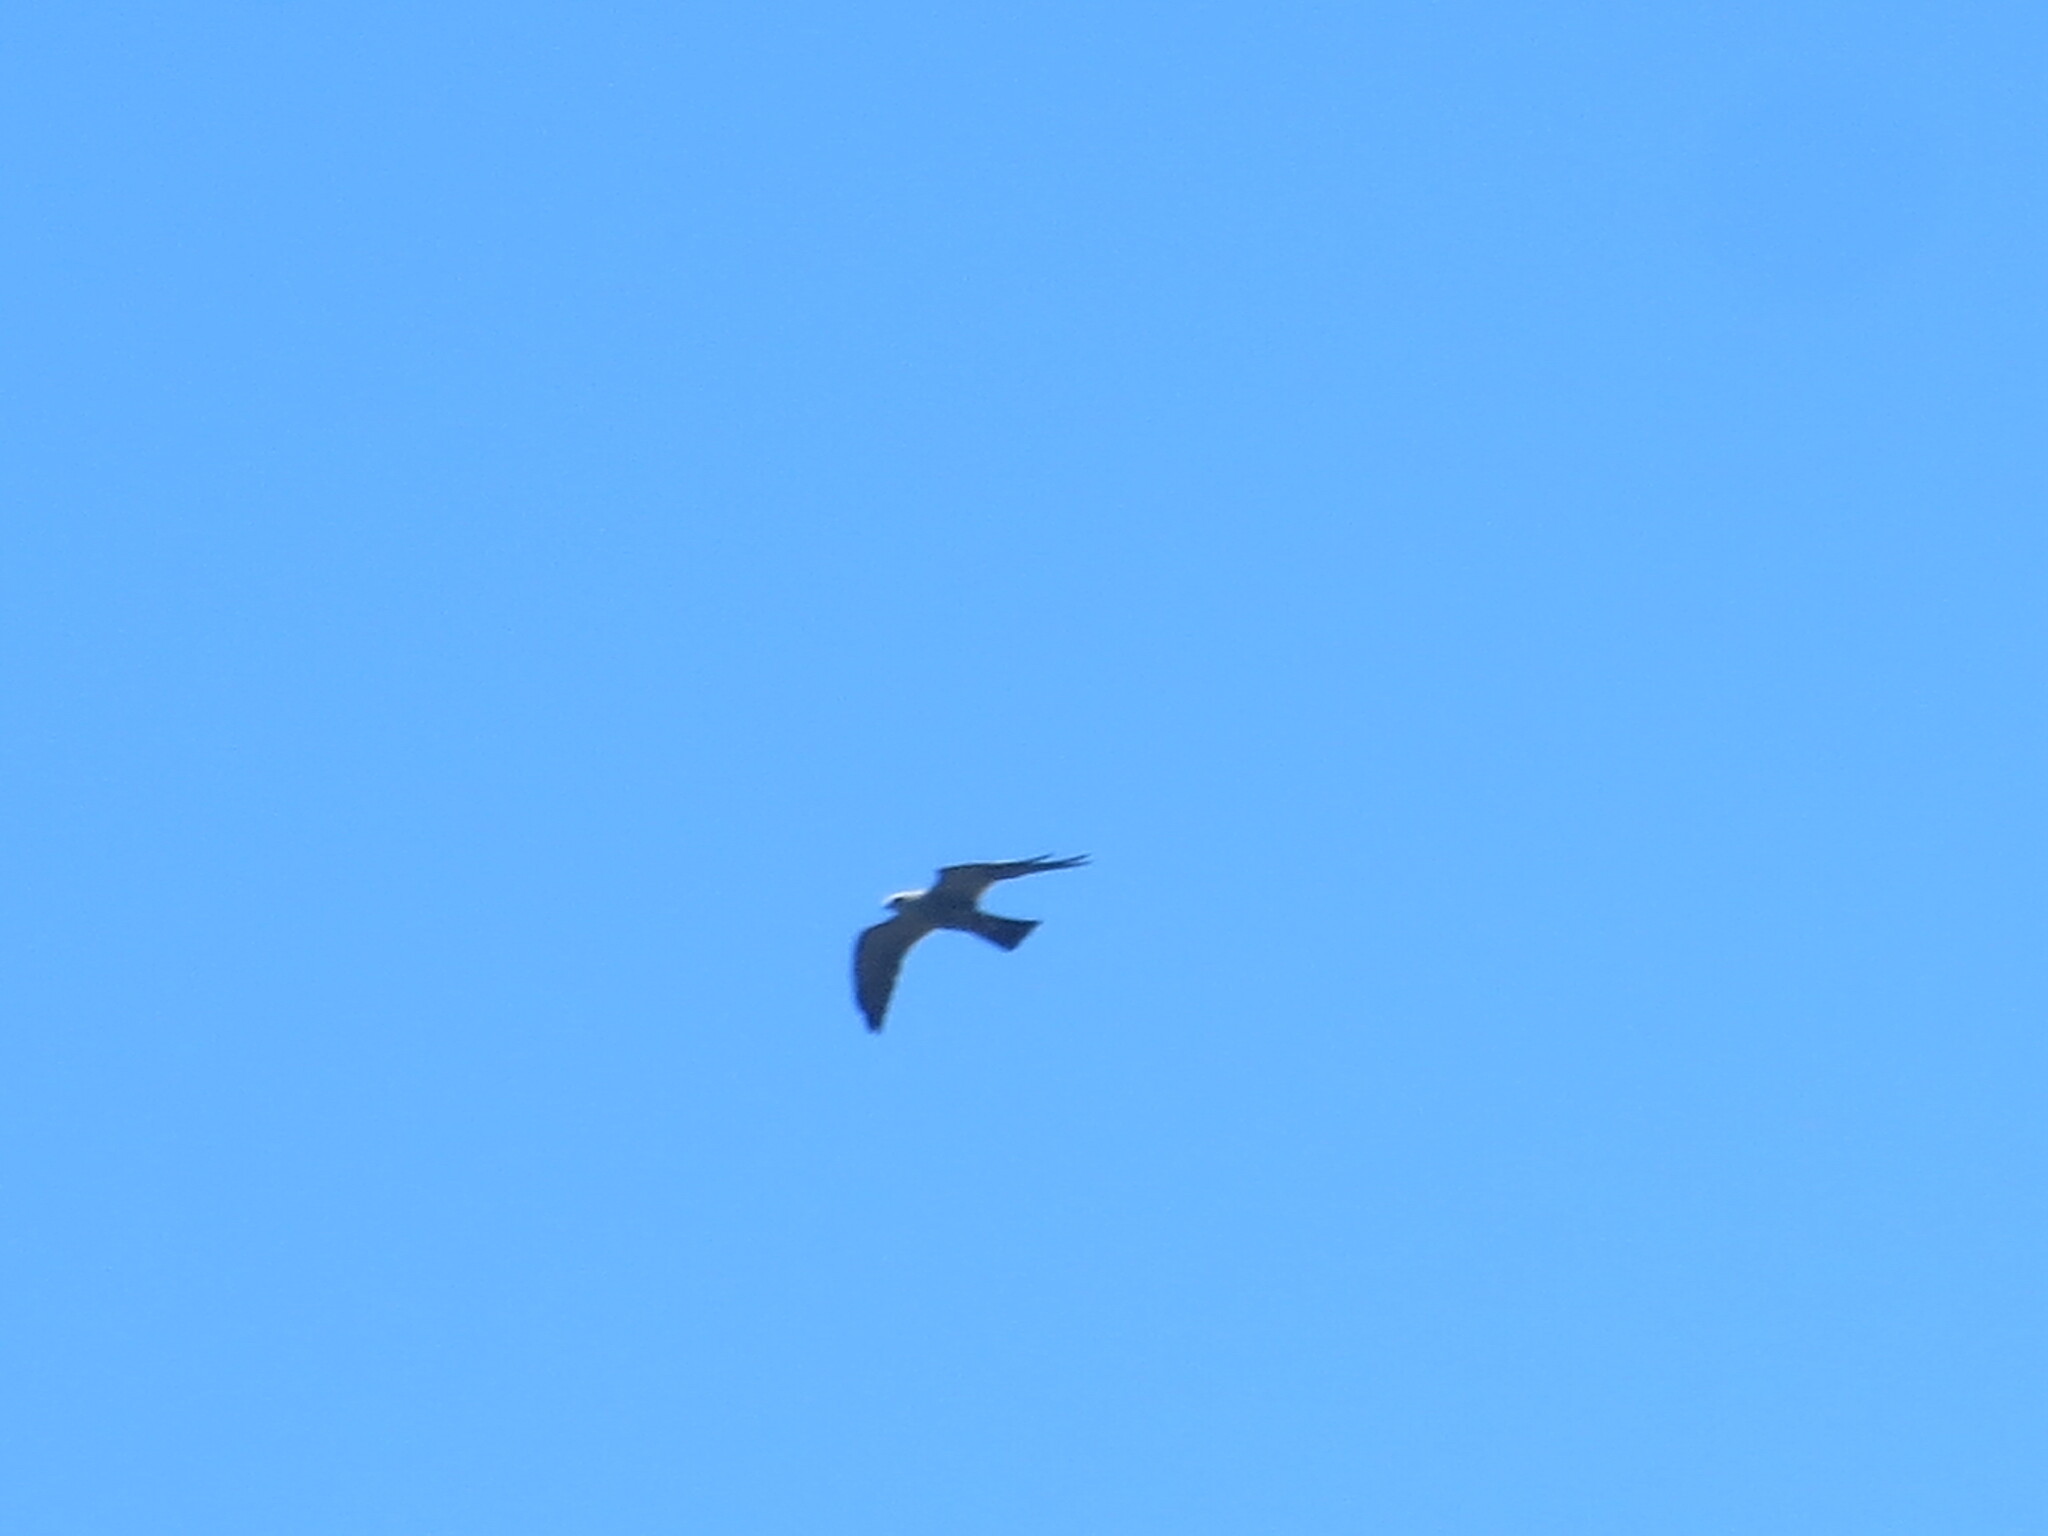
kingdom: Animalia
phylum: Chordata
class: Aves
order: Accipitriformes
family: Accipitridae
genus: Ictinia
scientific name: Ictinia mississippiensis
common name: Mississippi kite
